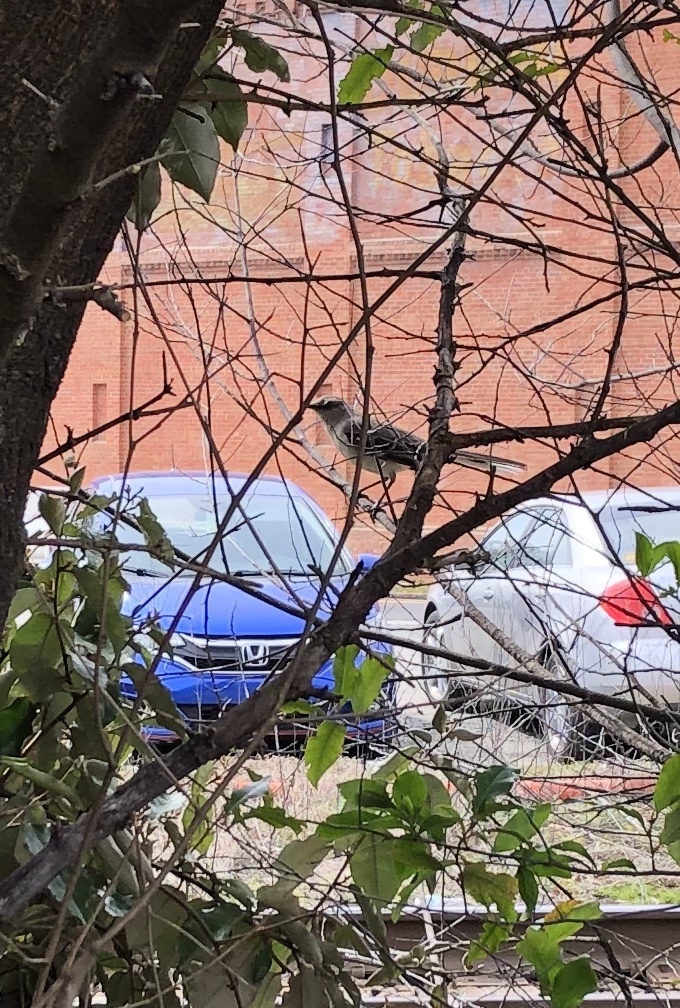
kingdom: Animalia
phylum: Chordata
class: Aves
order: Passeriformes
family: Mimidae
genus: Mimus
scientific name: Mimus polyglottos
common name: Northern mockingbird
